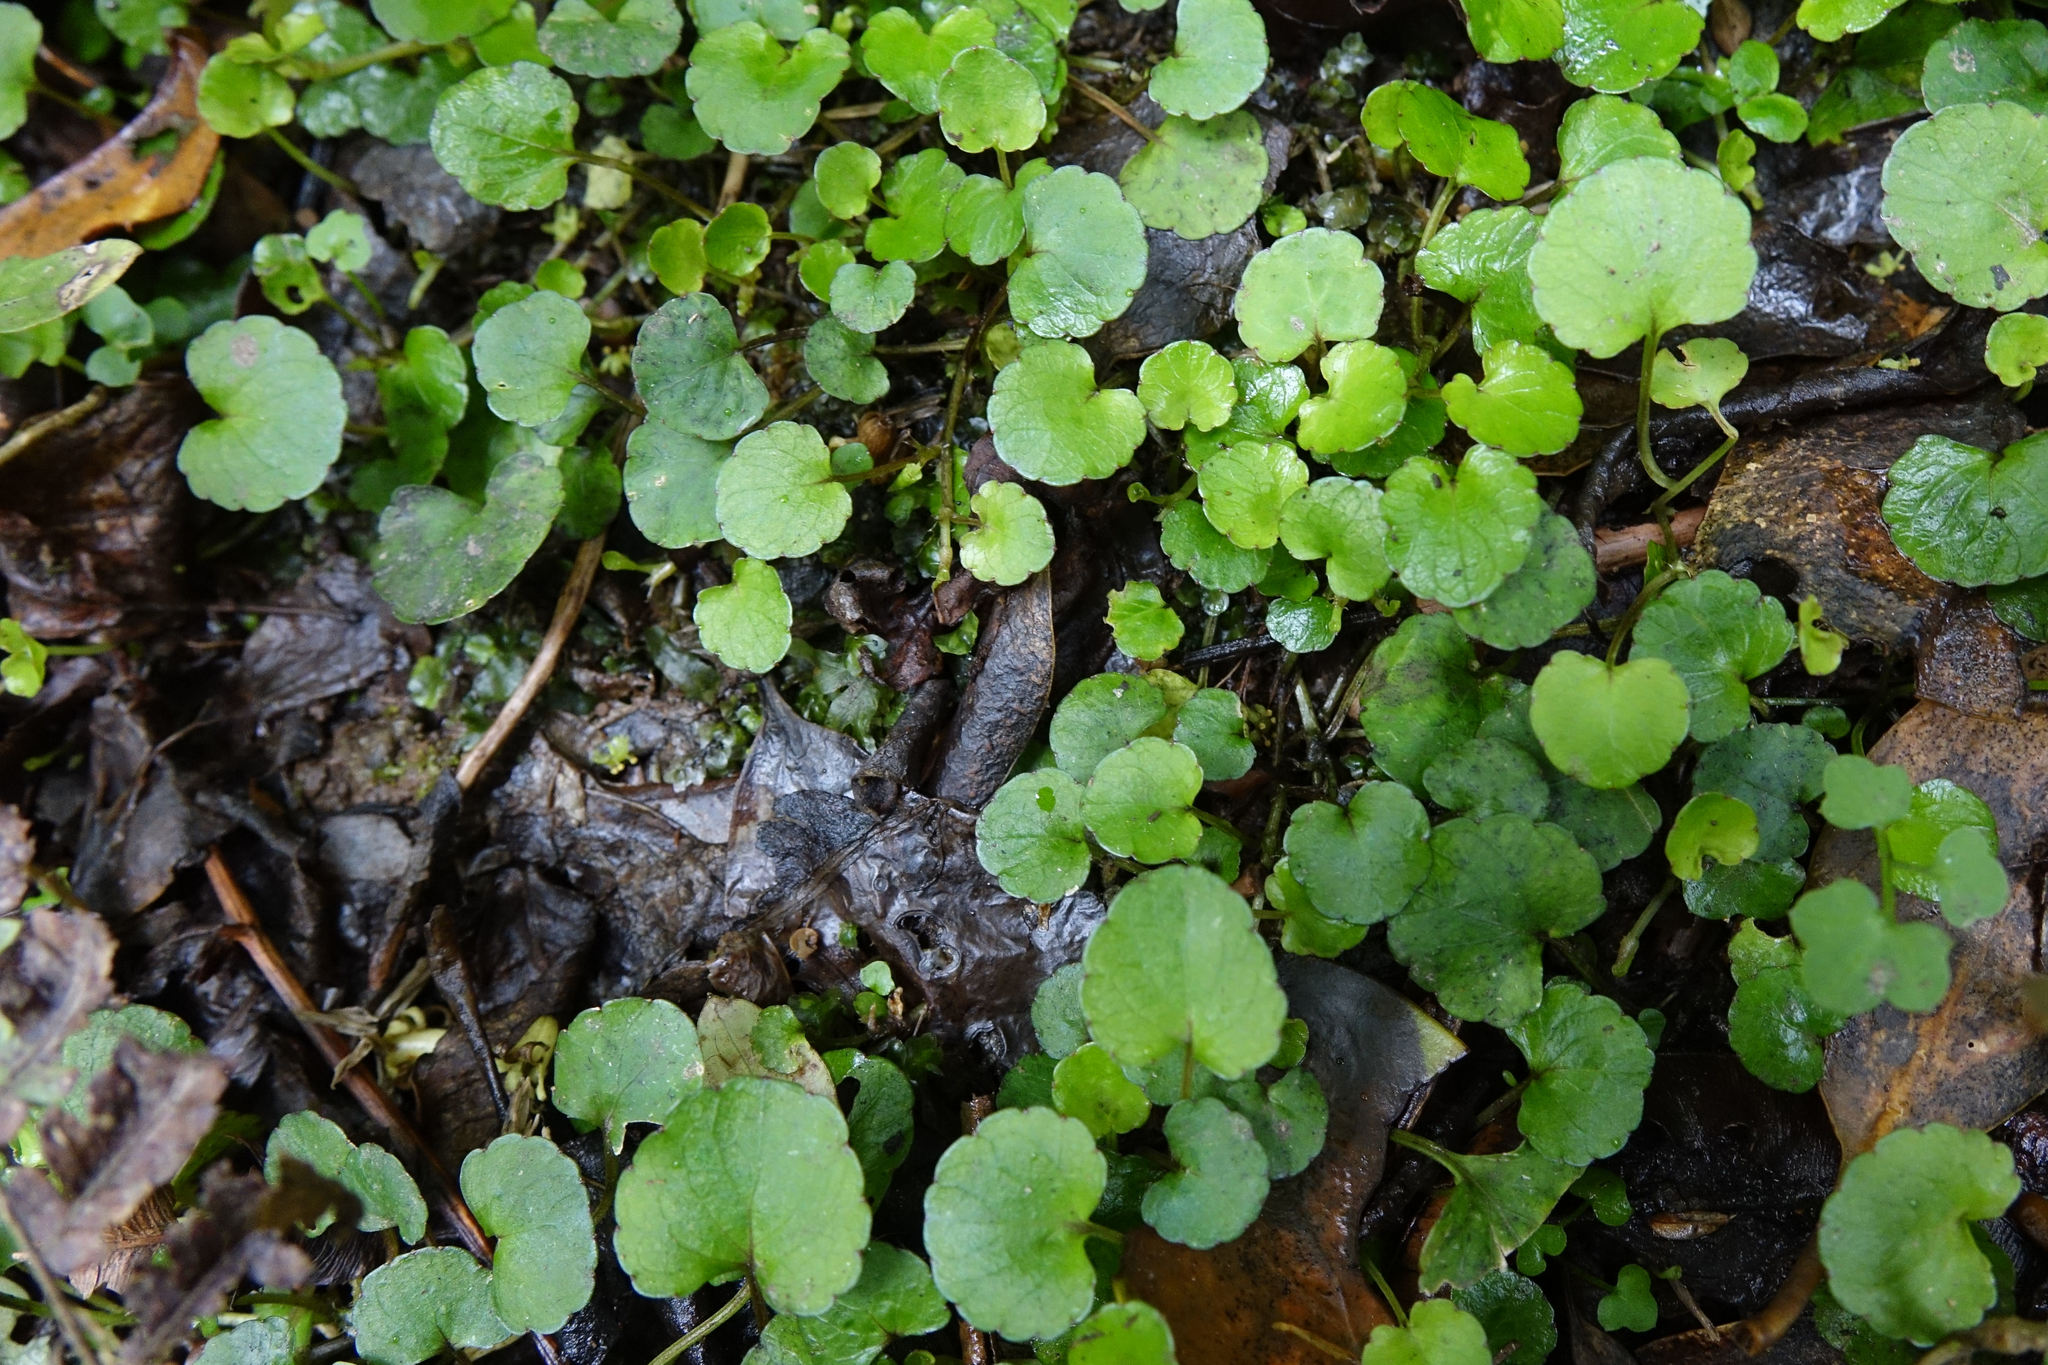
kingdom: Plantae
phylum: Tracheophyta
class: Magnoliopsida
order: Malpighiales
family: Violaceae
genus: Viola
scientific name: Viola filicaulis
